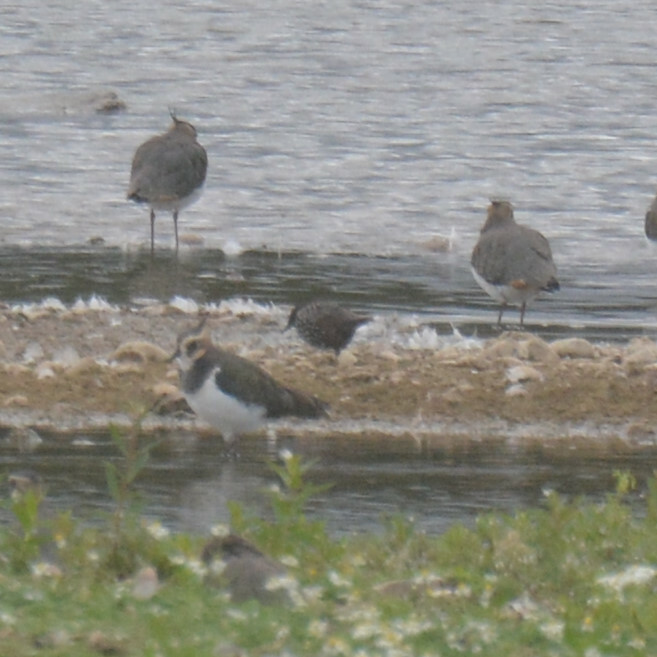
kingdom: Animalia
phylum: Chordata
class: Aves
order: Passeriformes
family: Sturnidae
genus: Sturnus
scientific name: Sturnus vulgaris
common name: Common starling
